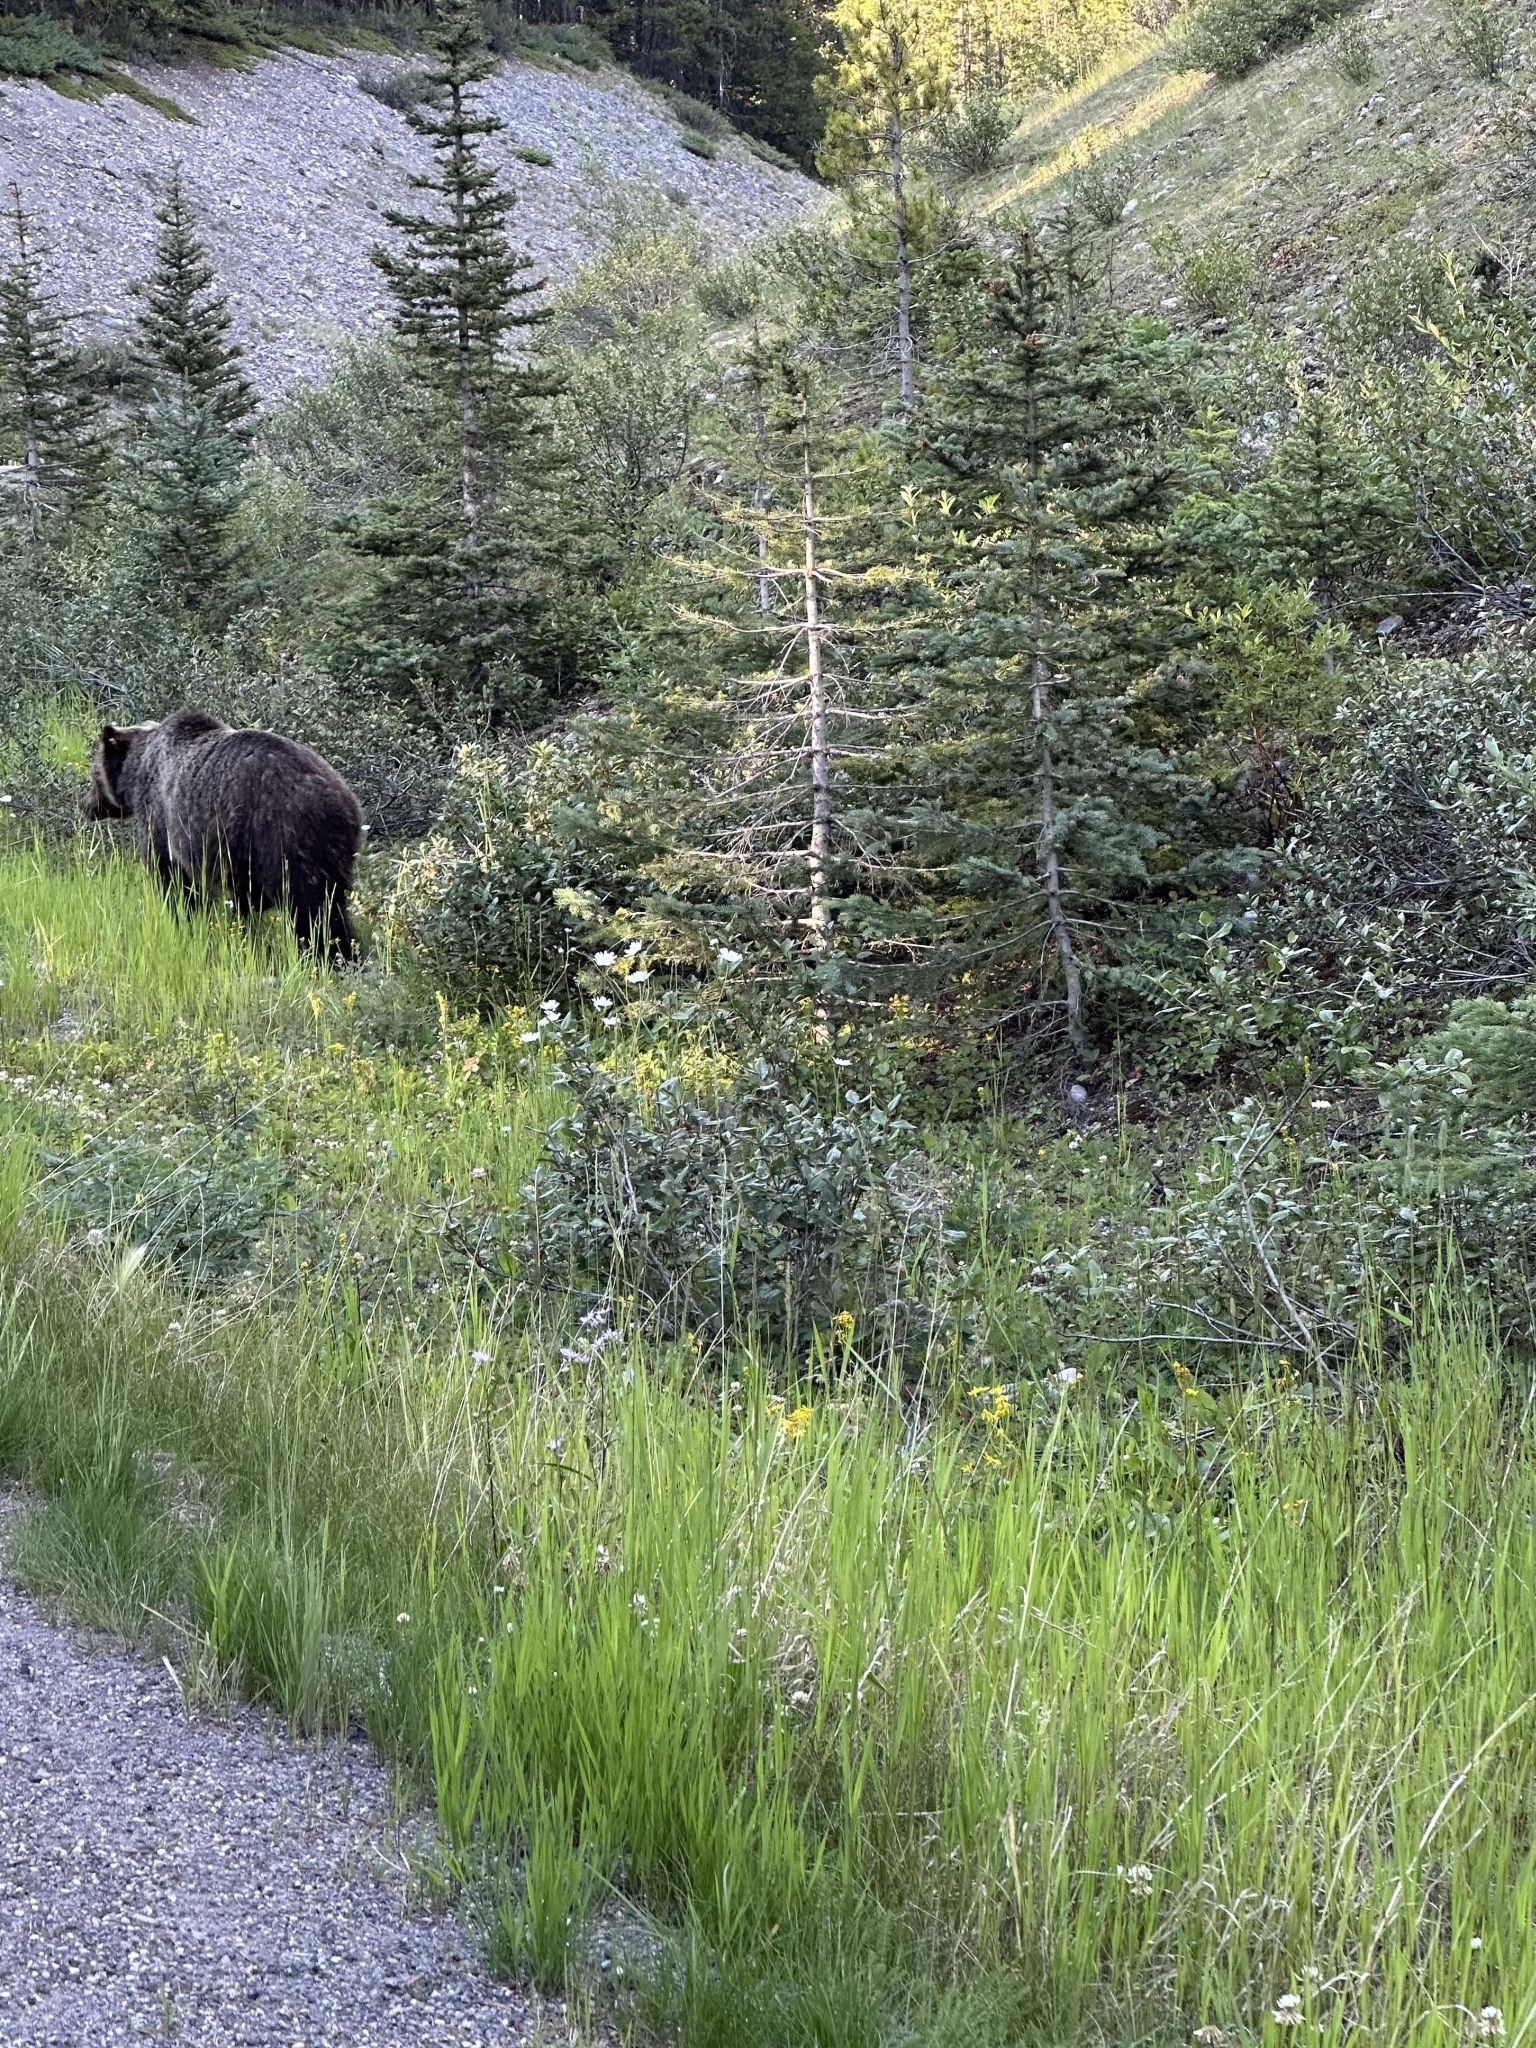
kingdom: Animalia
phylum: Chordata
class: Mammalia
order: Carnivora
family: Ursidae
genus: Ursus
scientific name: Ursus arctos
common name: Brown bear
